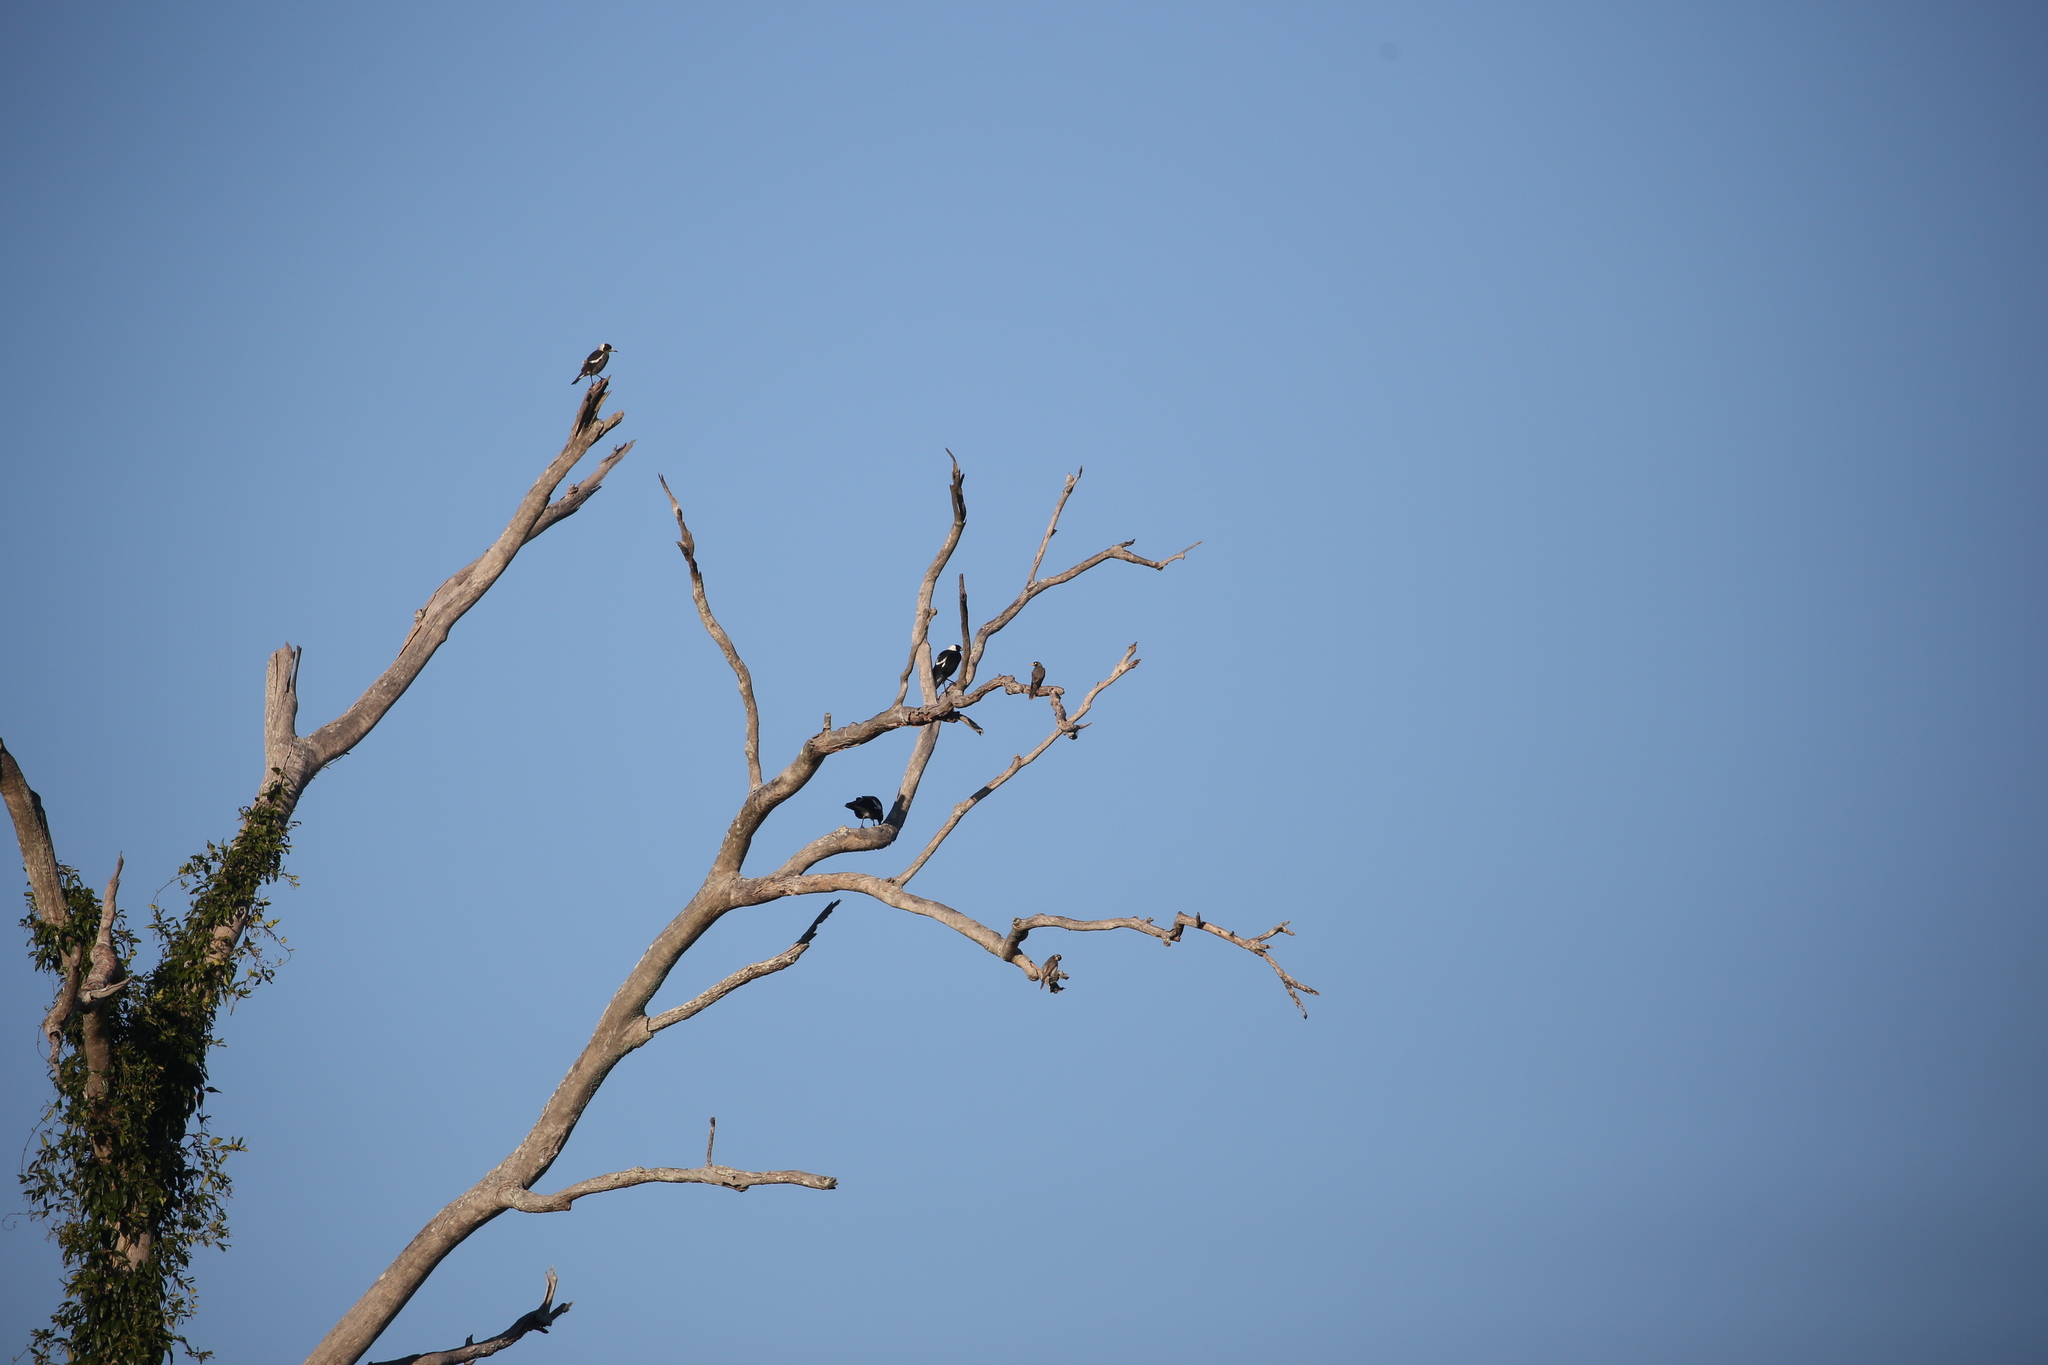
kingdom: Animalia
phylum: Chordata
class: Aves
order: Passeriformes
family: Meliphagidae
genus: Manorina
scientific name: Manorina melanocephala
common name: Noisy miner
